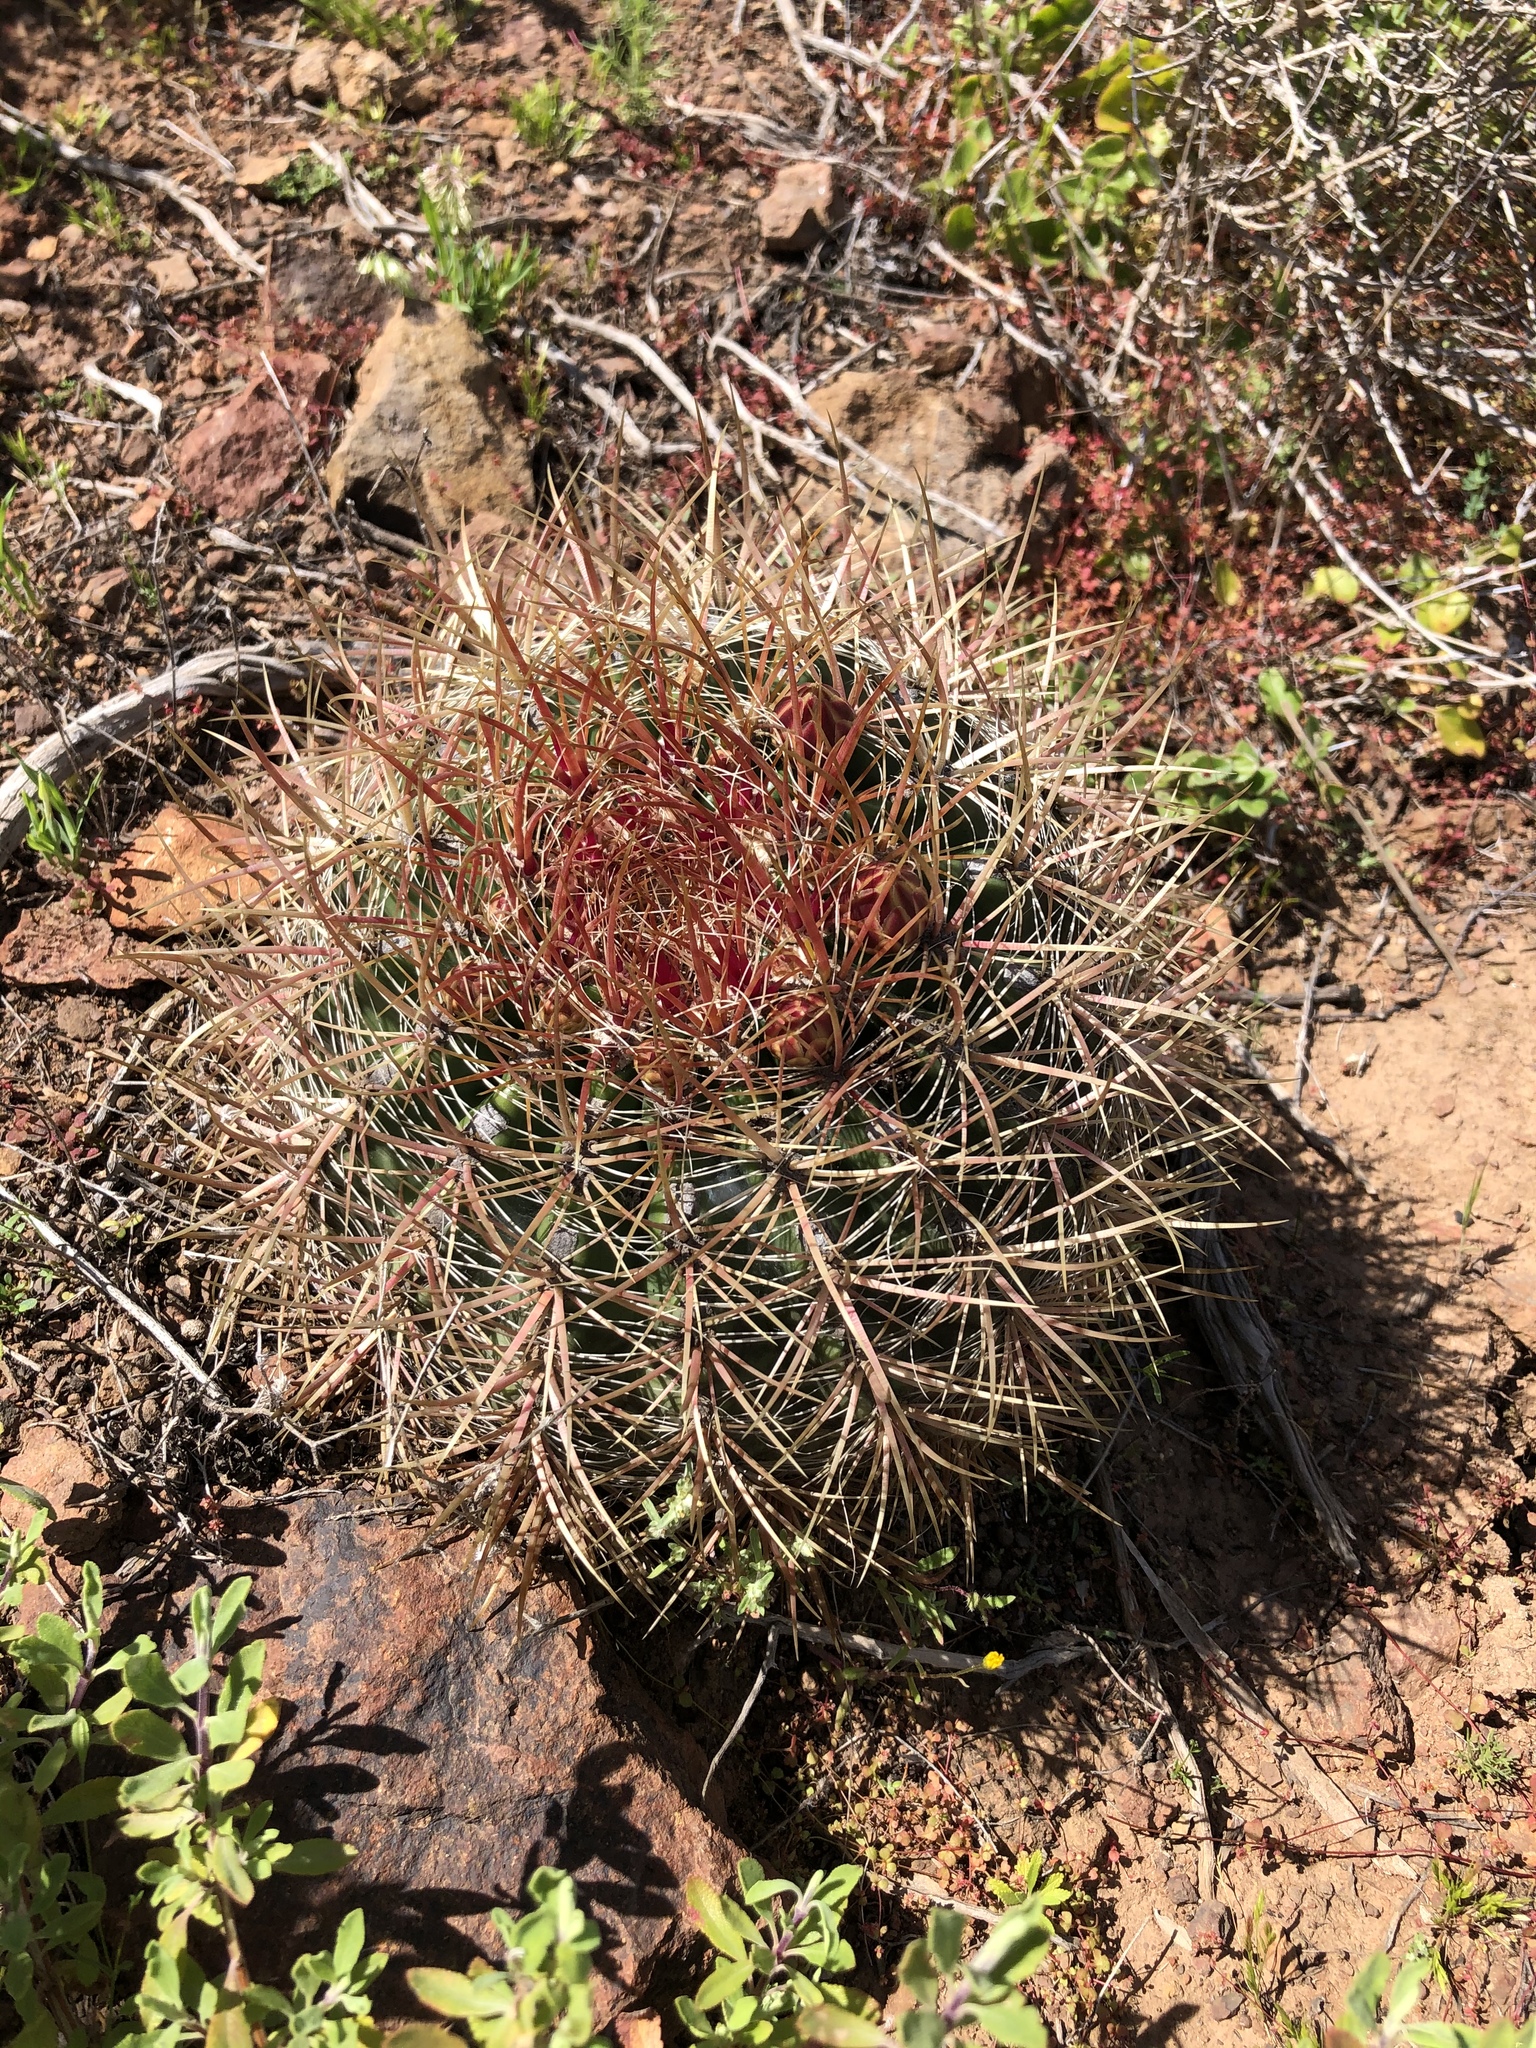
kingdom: Plantae
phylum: Tracheophyta
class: Magnoliopsida
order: Caryophyllales
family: Cactaceae
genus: Ferocactus
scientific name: Ferocactus viridescens
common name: San diego barrel cactus
